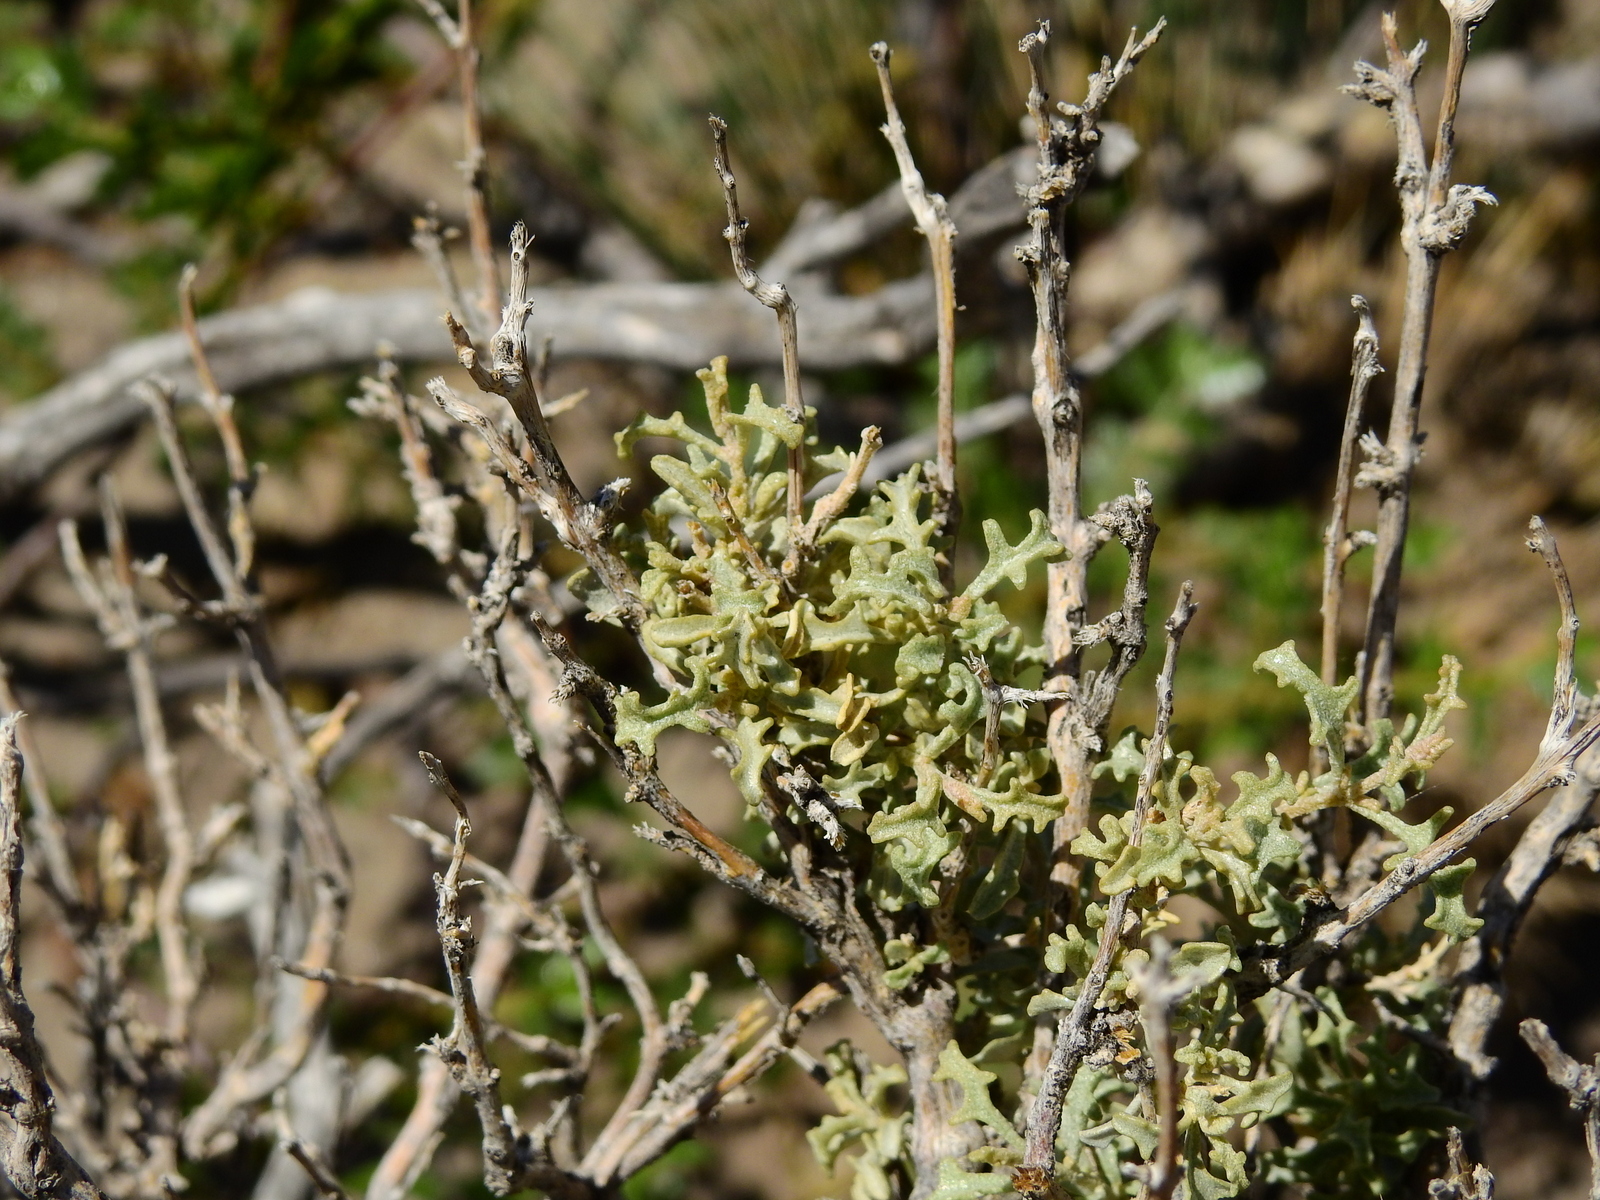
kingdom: Plantae
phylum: Tracheophyta
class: Magnoliopsida
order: Caryophyllales
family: Amaranthaceae
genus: Atriplex
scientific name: Atriplex lampa
